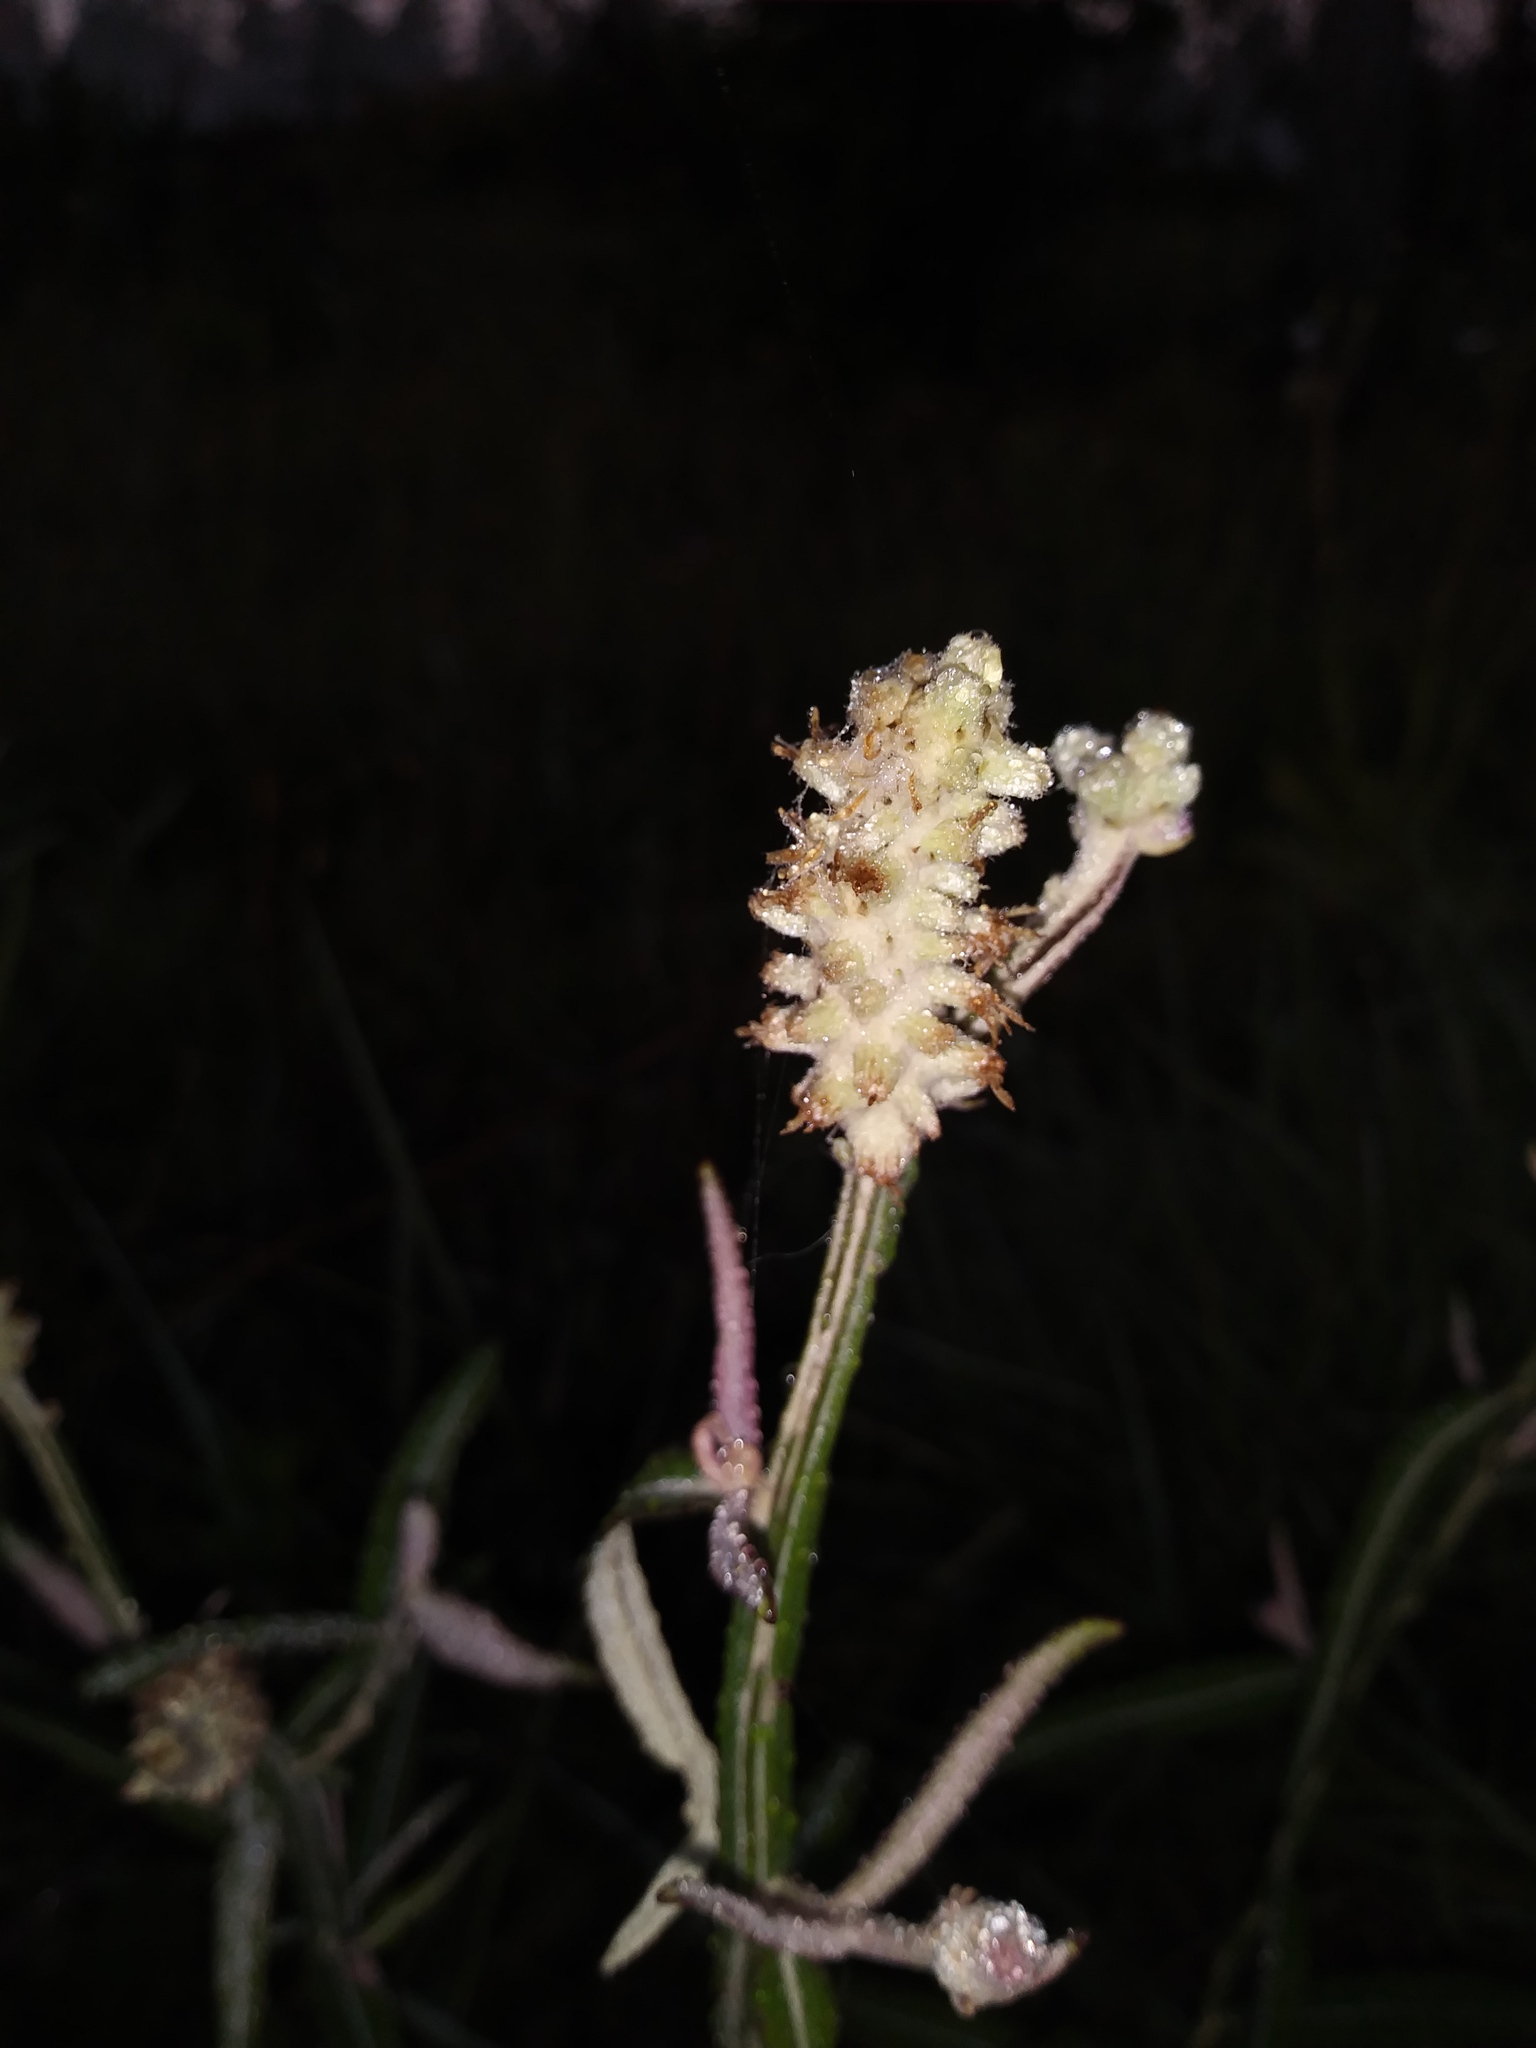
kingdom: Plantae
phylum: Tracheophyta
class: Magnoliopsida
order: Asterales
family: Asteraceae
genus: Pterocaulon
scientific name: Pterocaulon pycnostachyum
